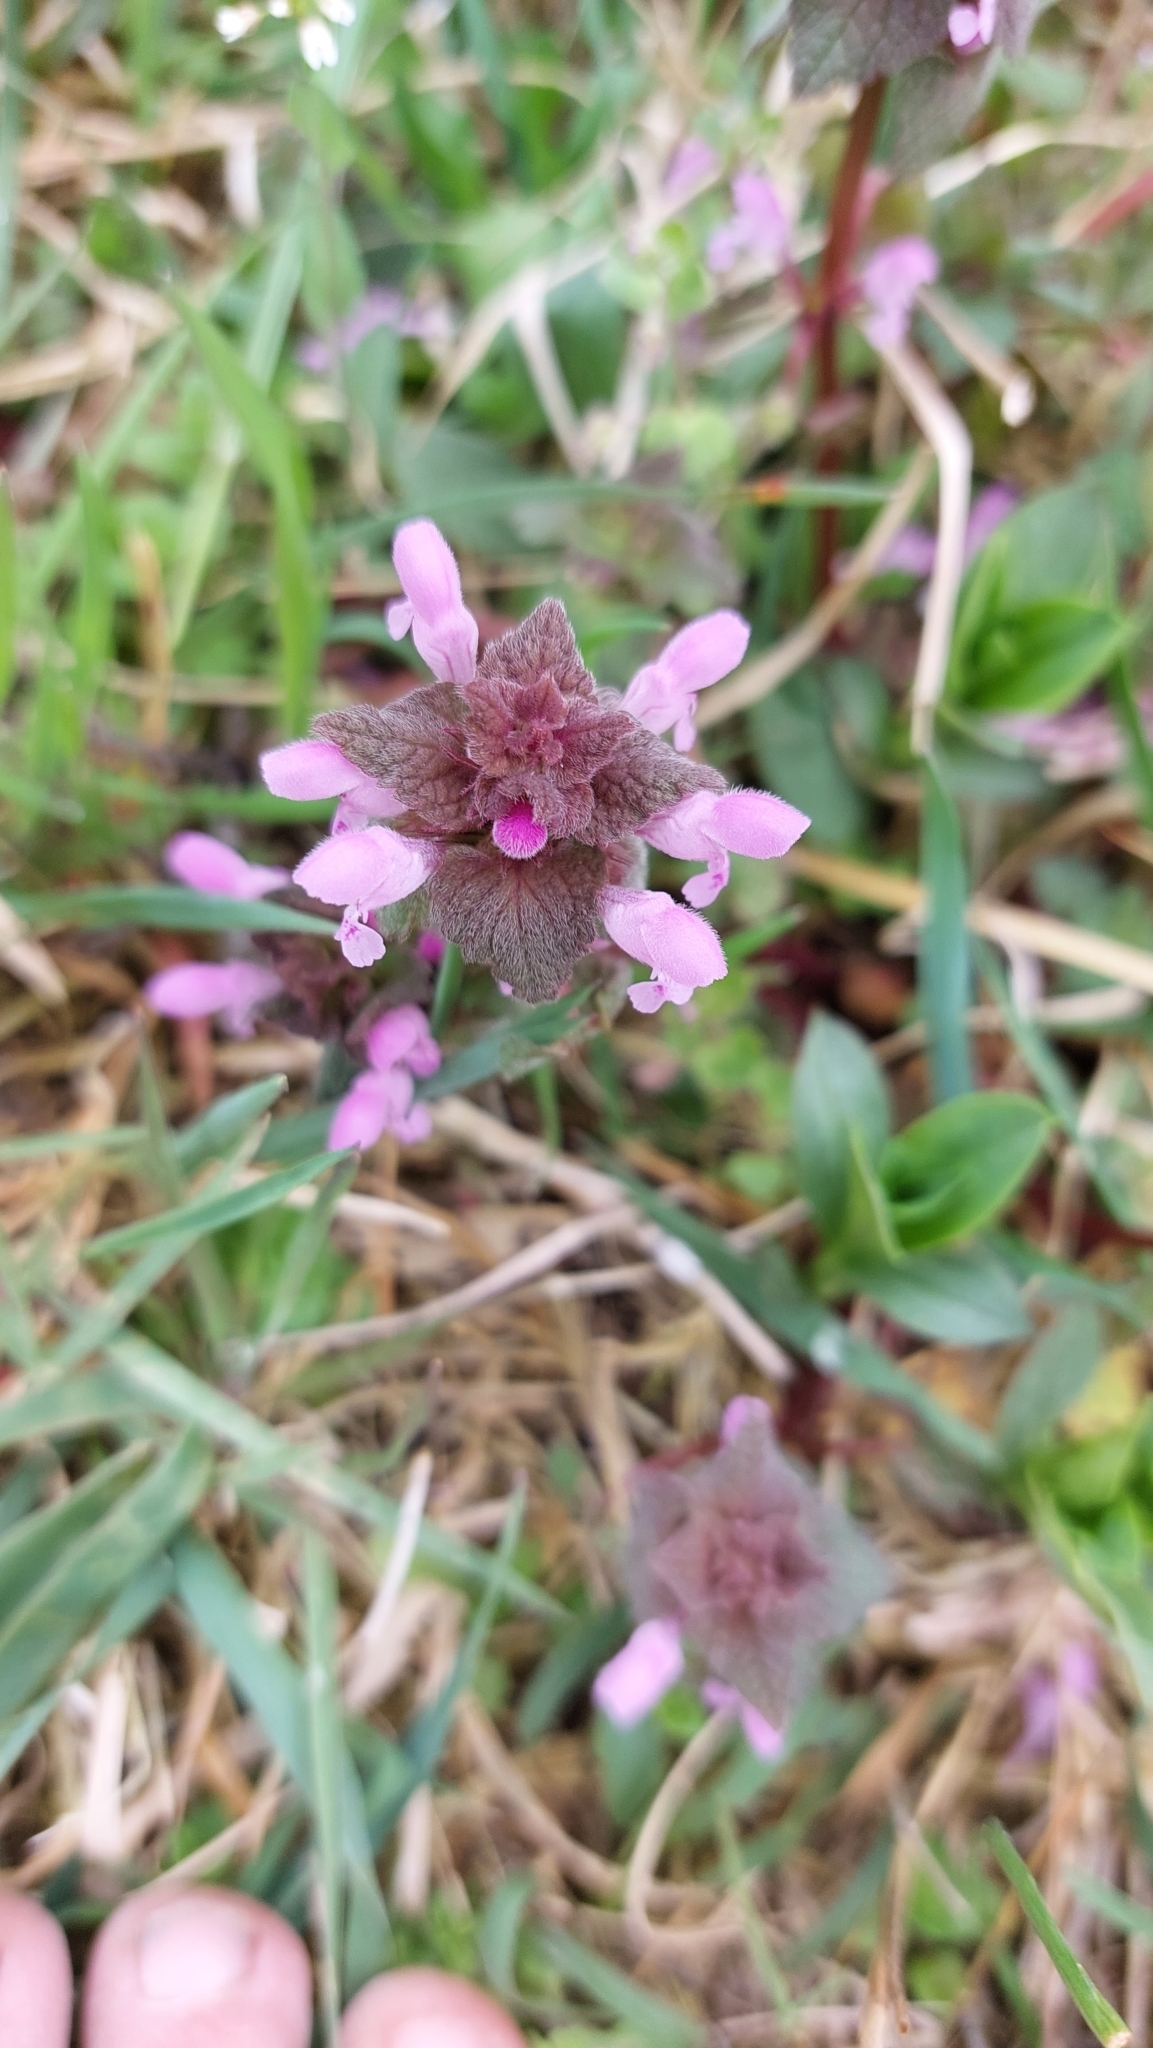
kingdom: Plantae
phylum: Tracheophyta
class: Magnoliopsida
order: Lamiales
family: Lamiaceae
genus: Lamium
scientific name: Lamium purpureum
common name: Red dead-nettle
